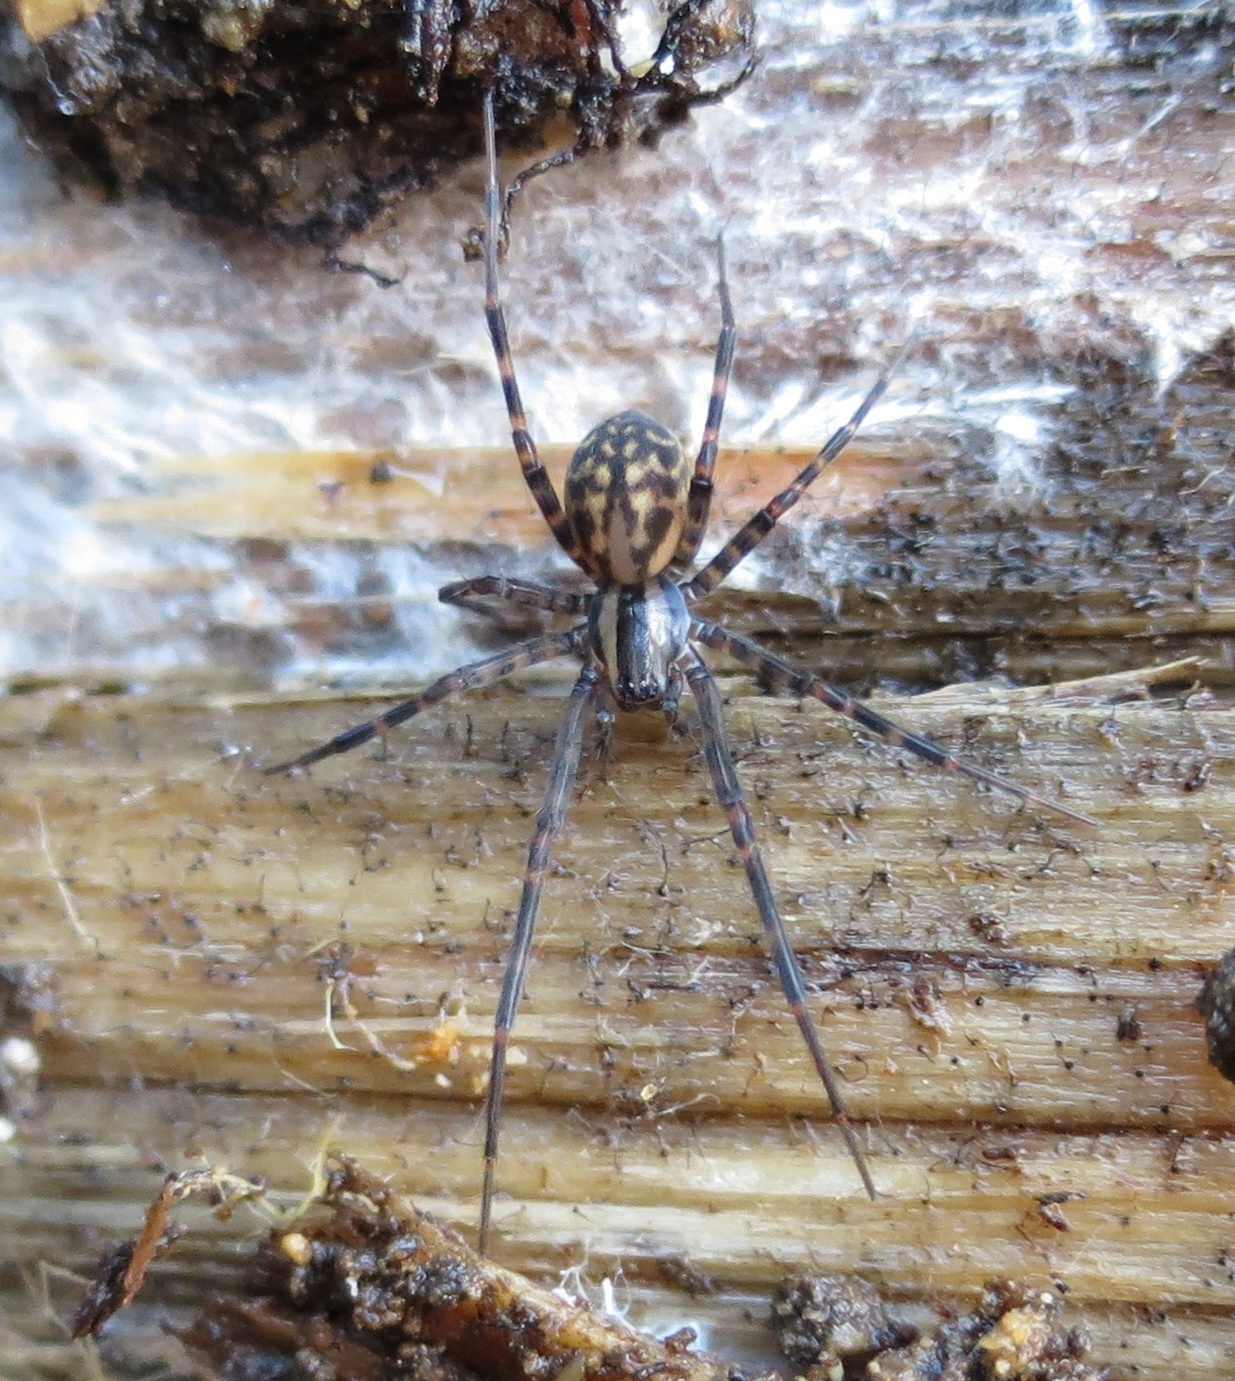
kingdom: Animalia
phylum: Arthropoda
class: Arachnida
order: Araneae
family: Desidae
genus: Cambridgea
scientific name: Cambridgea plagiata
